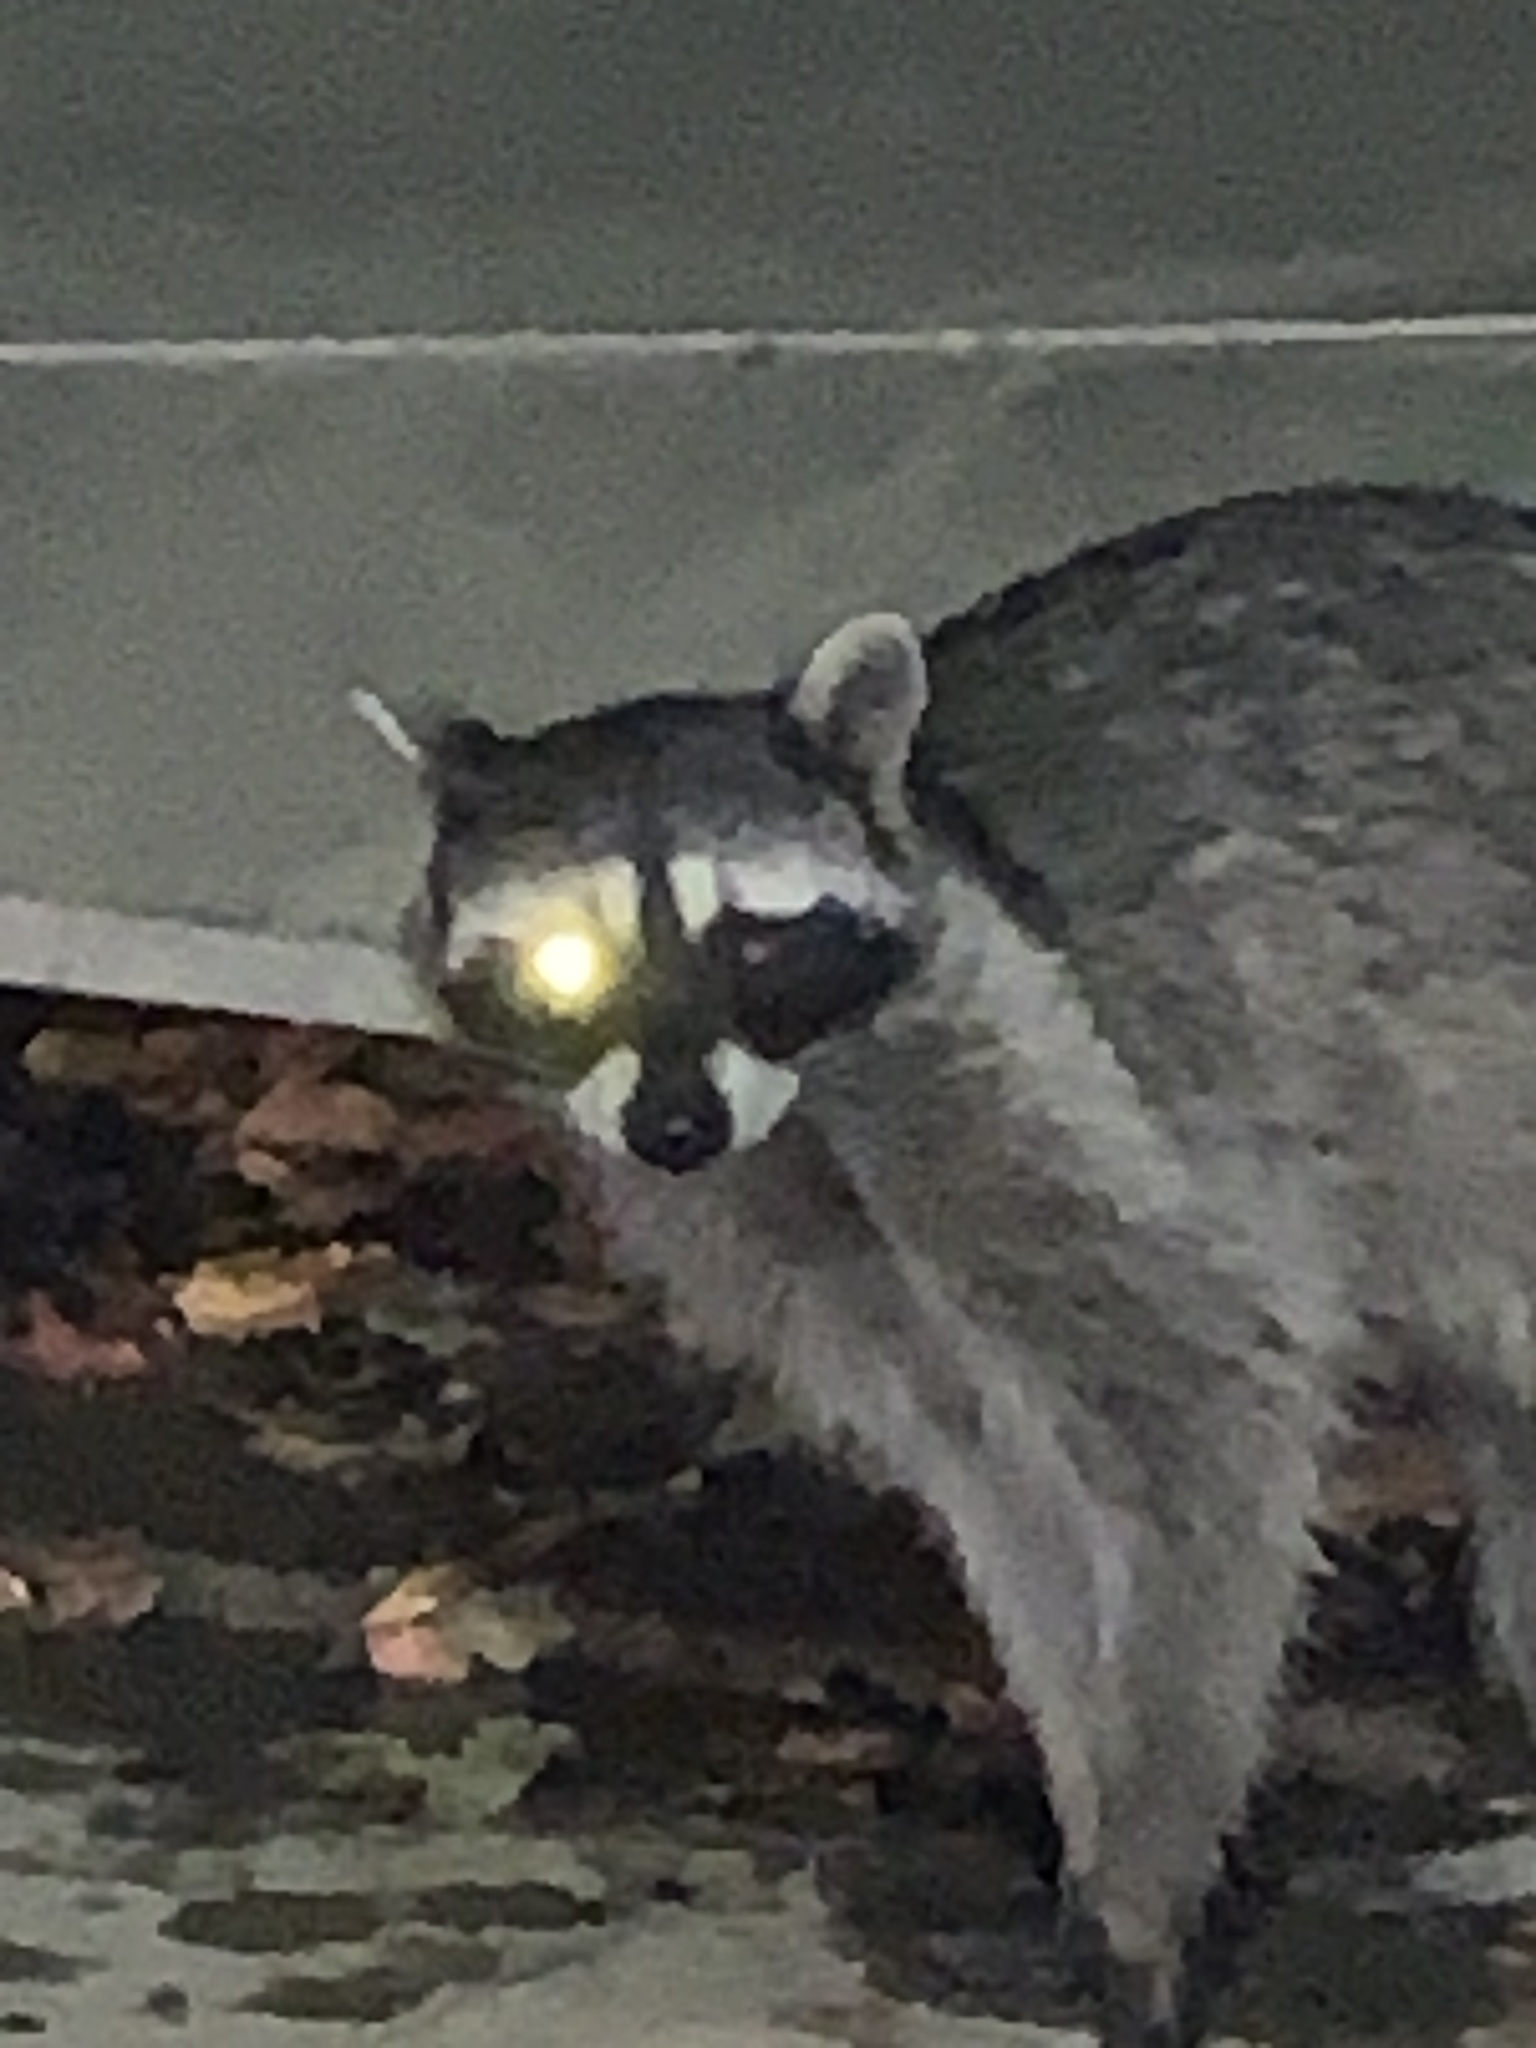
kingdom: Animalia
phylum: Chordata
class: Mammalia
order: Carnivora
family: Procyonidae
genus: Procyon
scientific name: Procyon lotor
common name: Raccoon
